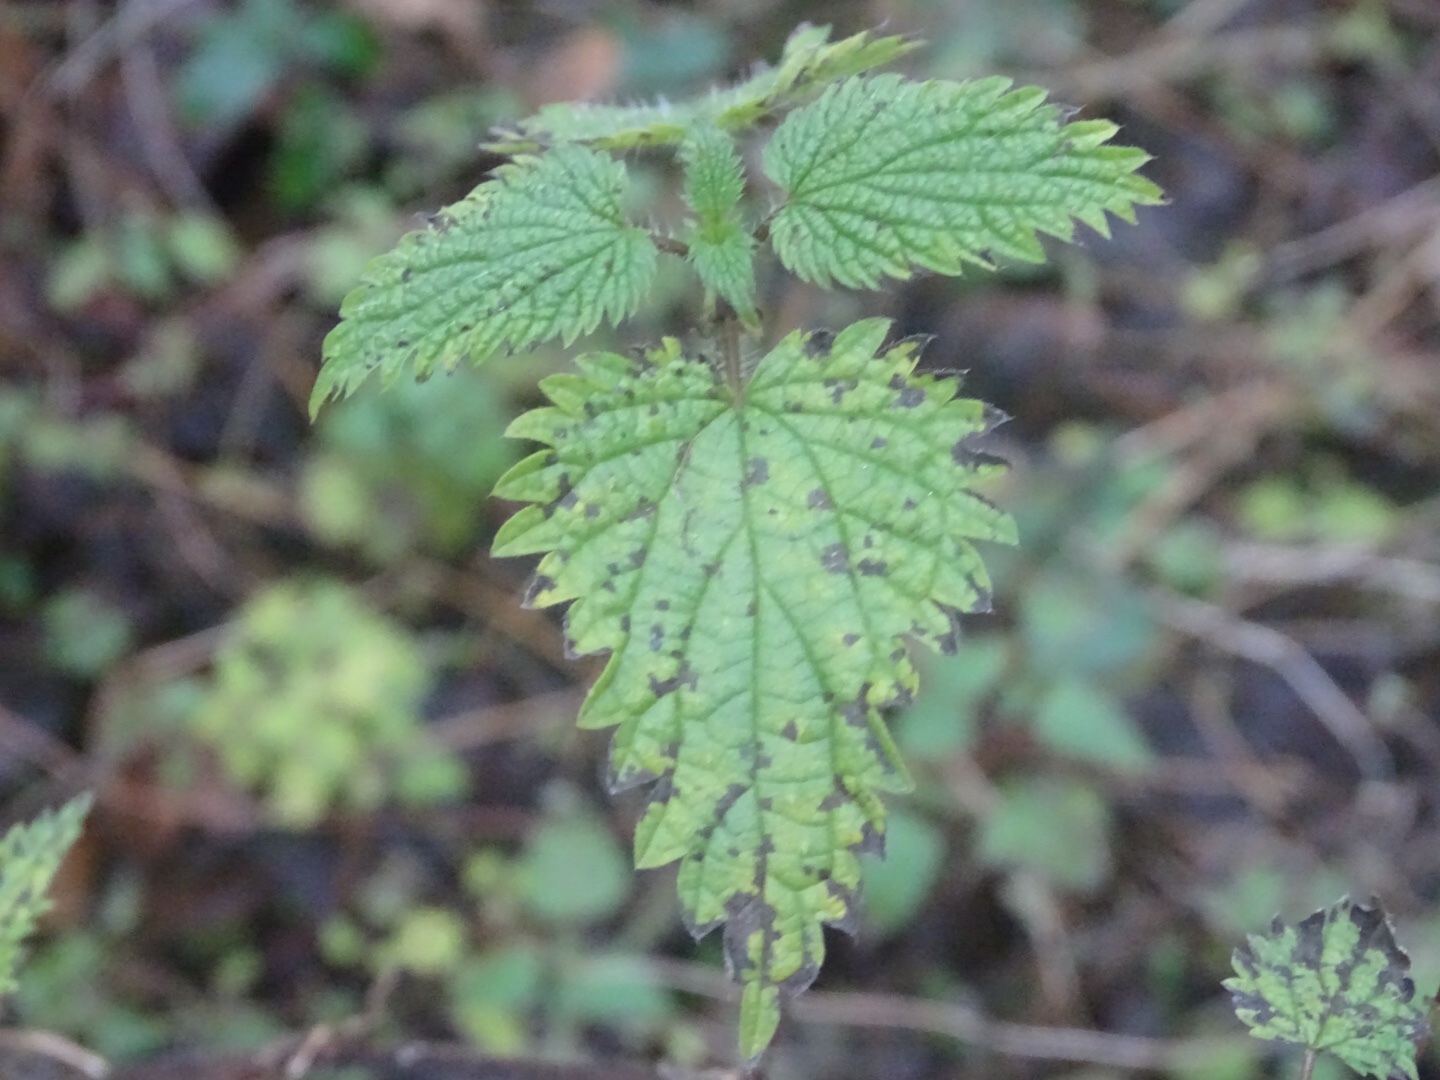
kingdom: Plantae
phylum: Tracheophyta
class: Magnoliopsida
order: Rosales
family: Urticaceae
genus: Urtica
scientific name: Urtica dioica
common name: Common nettle
